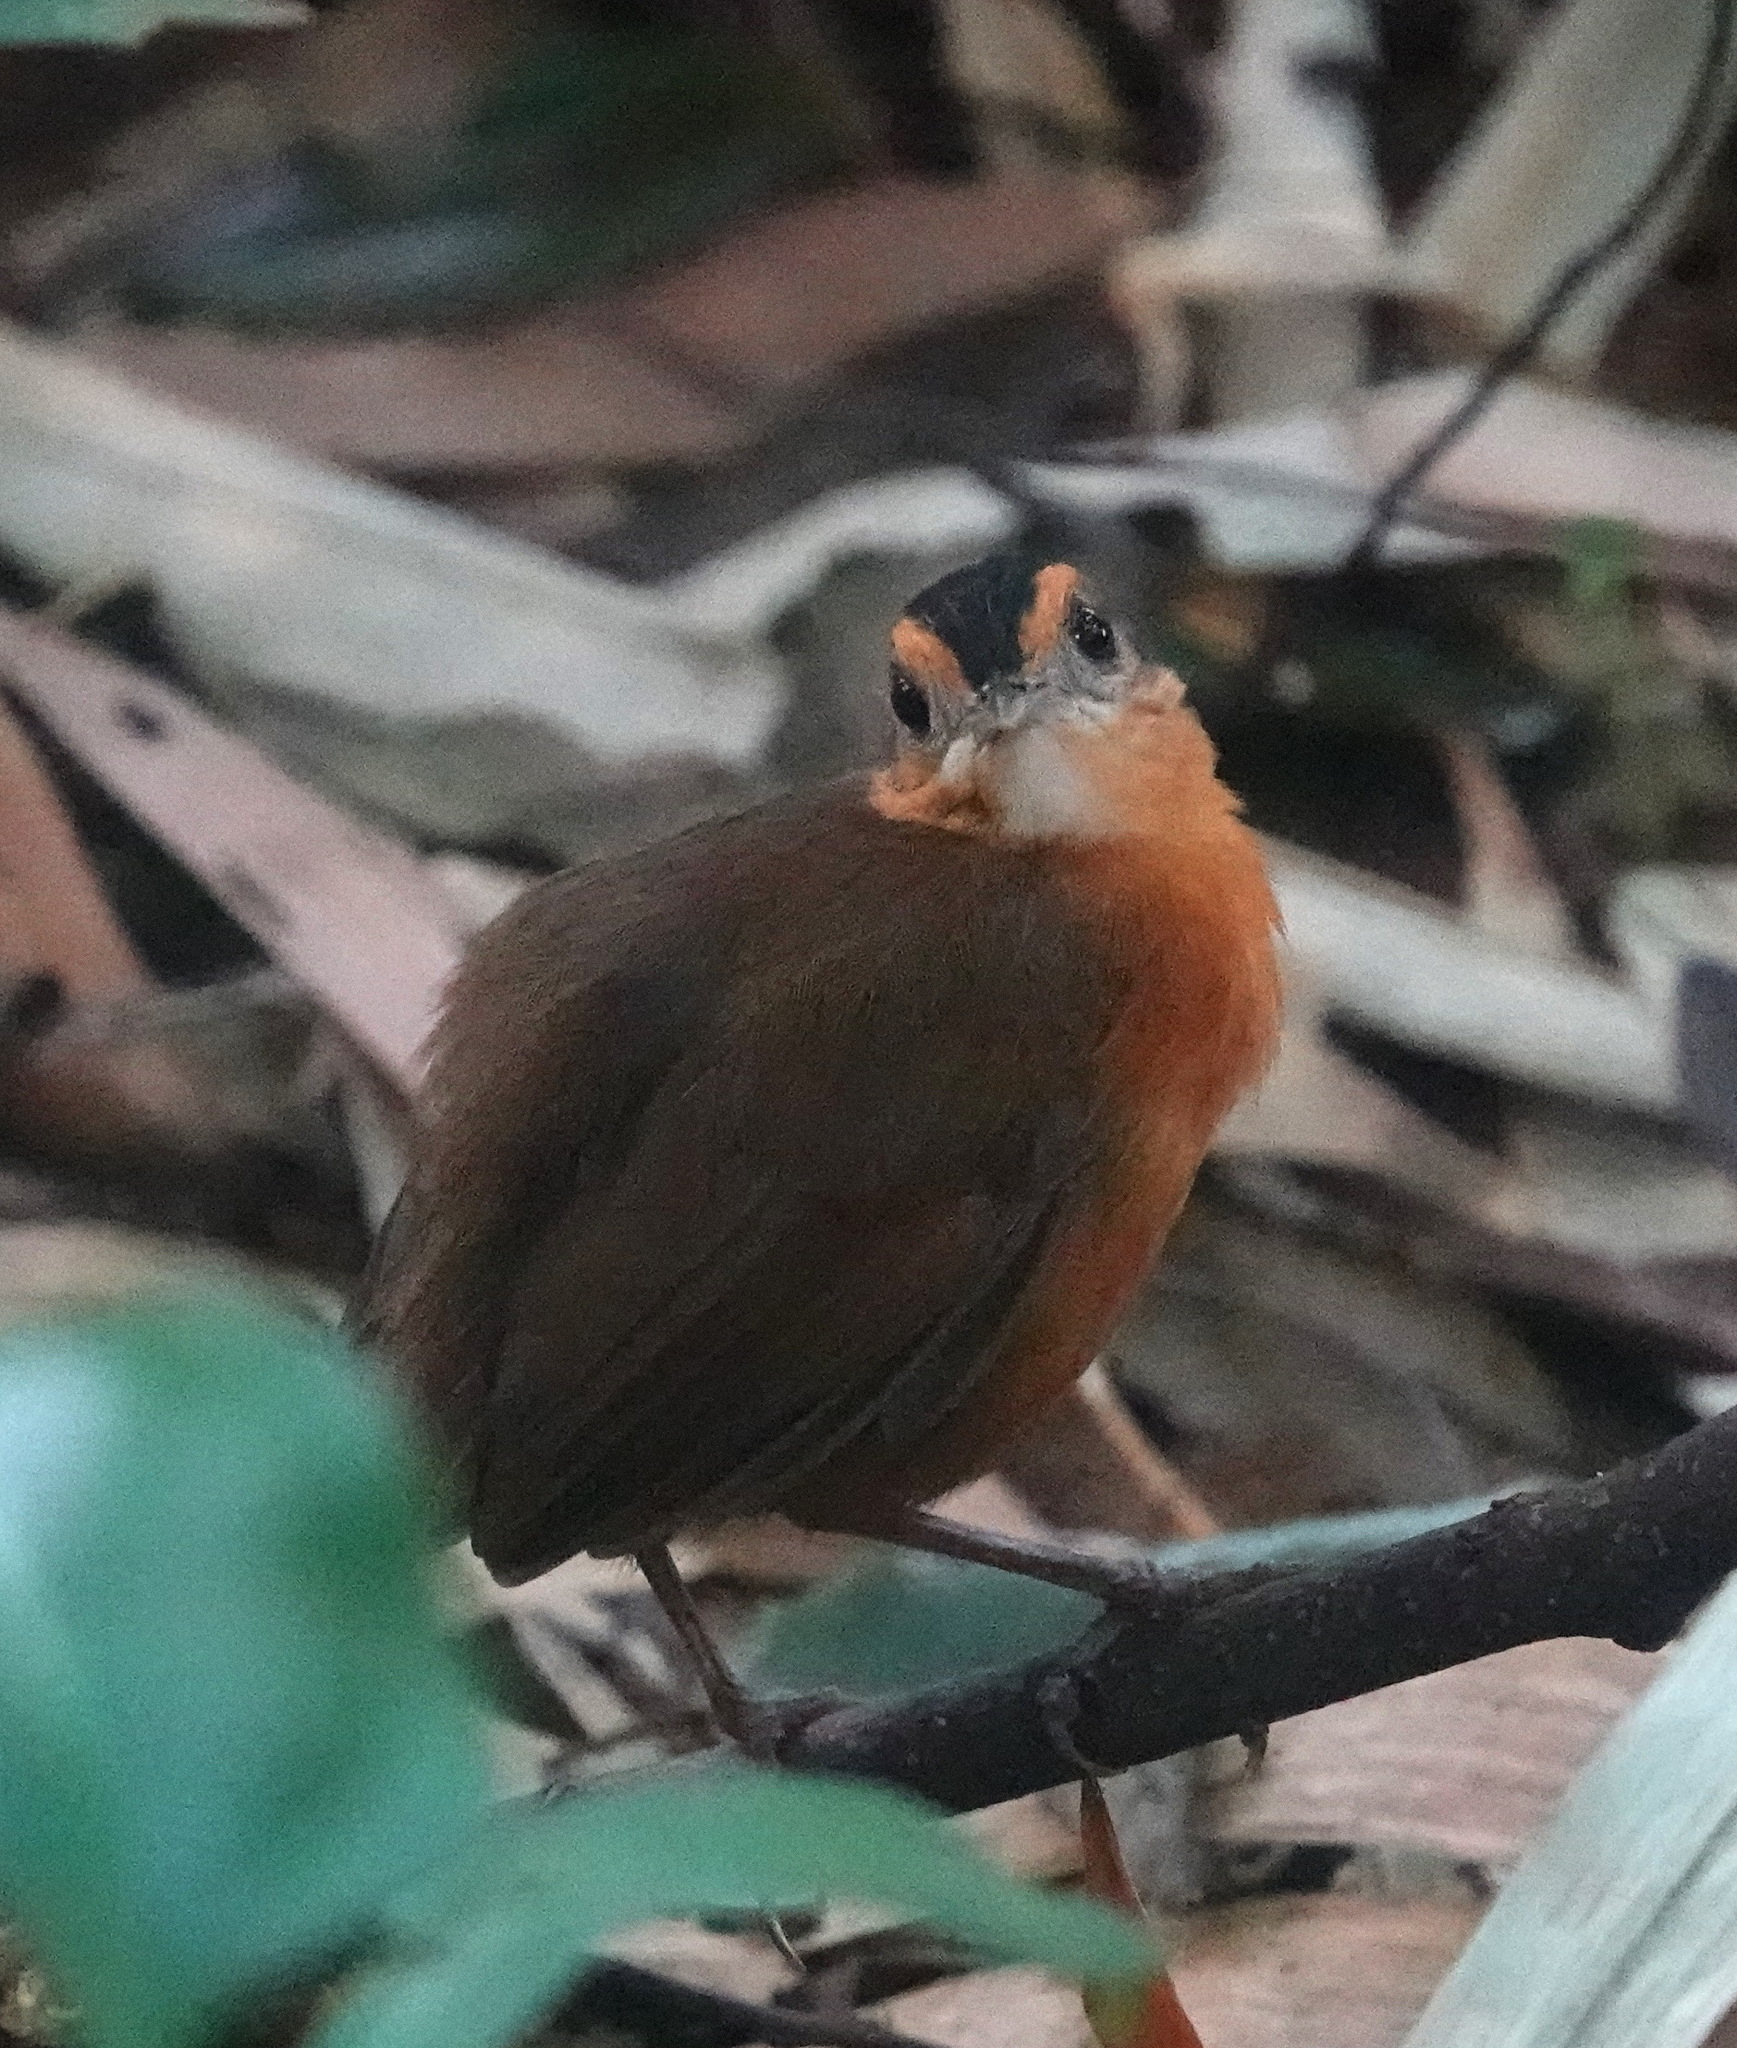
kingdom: Animalia
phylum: Chordata
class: Aves
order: Passeriformes
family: Pellorneidae
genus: Pellorneum
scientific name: Pellorneum capistratum
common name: Black-capped babbler
